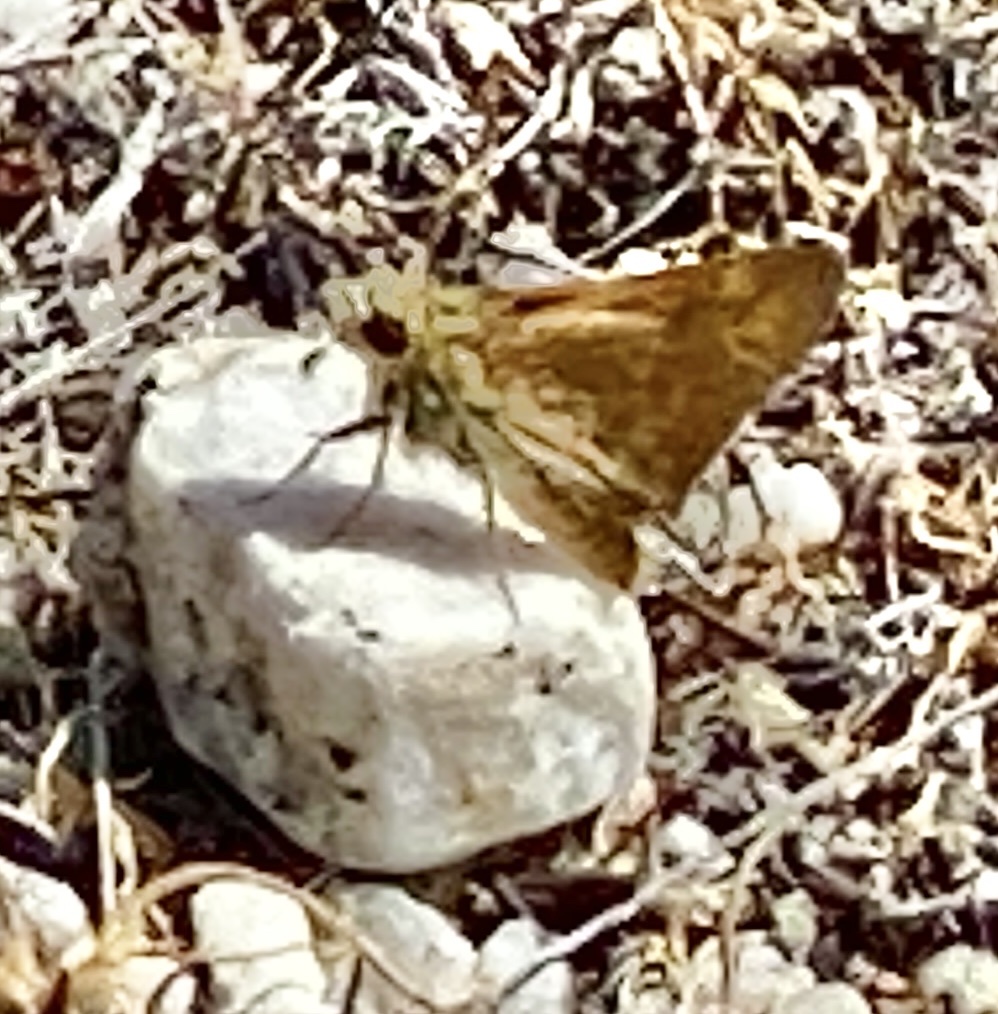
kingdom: Animalia
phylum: Arthropoda
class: Insecta
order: Lepidoptera
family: Hesperiidae
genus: Ochlodes
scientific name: Ochlodes sylvanoides
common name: Woodland skipper
